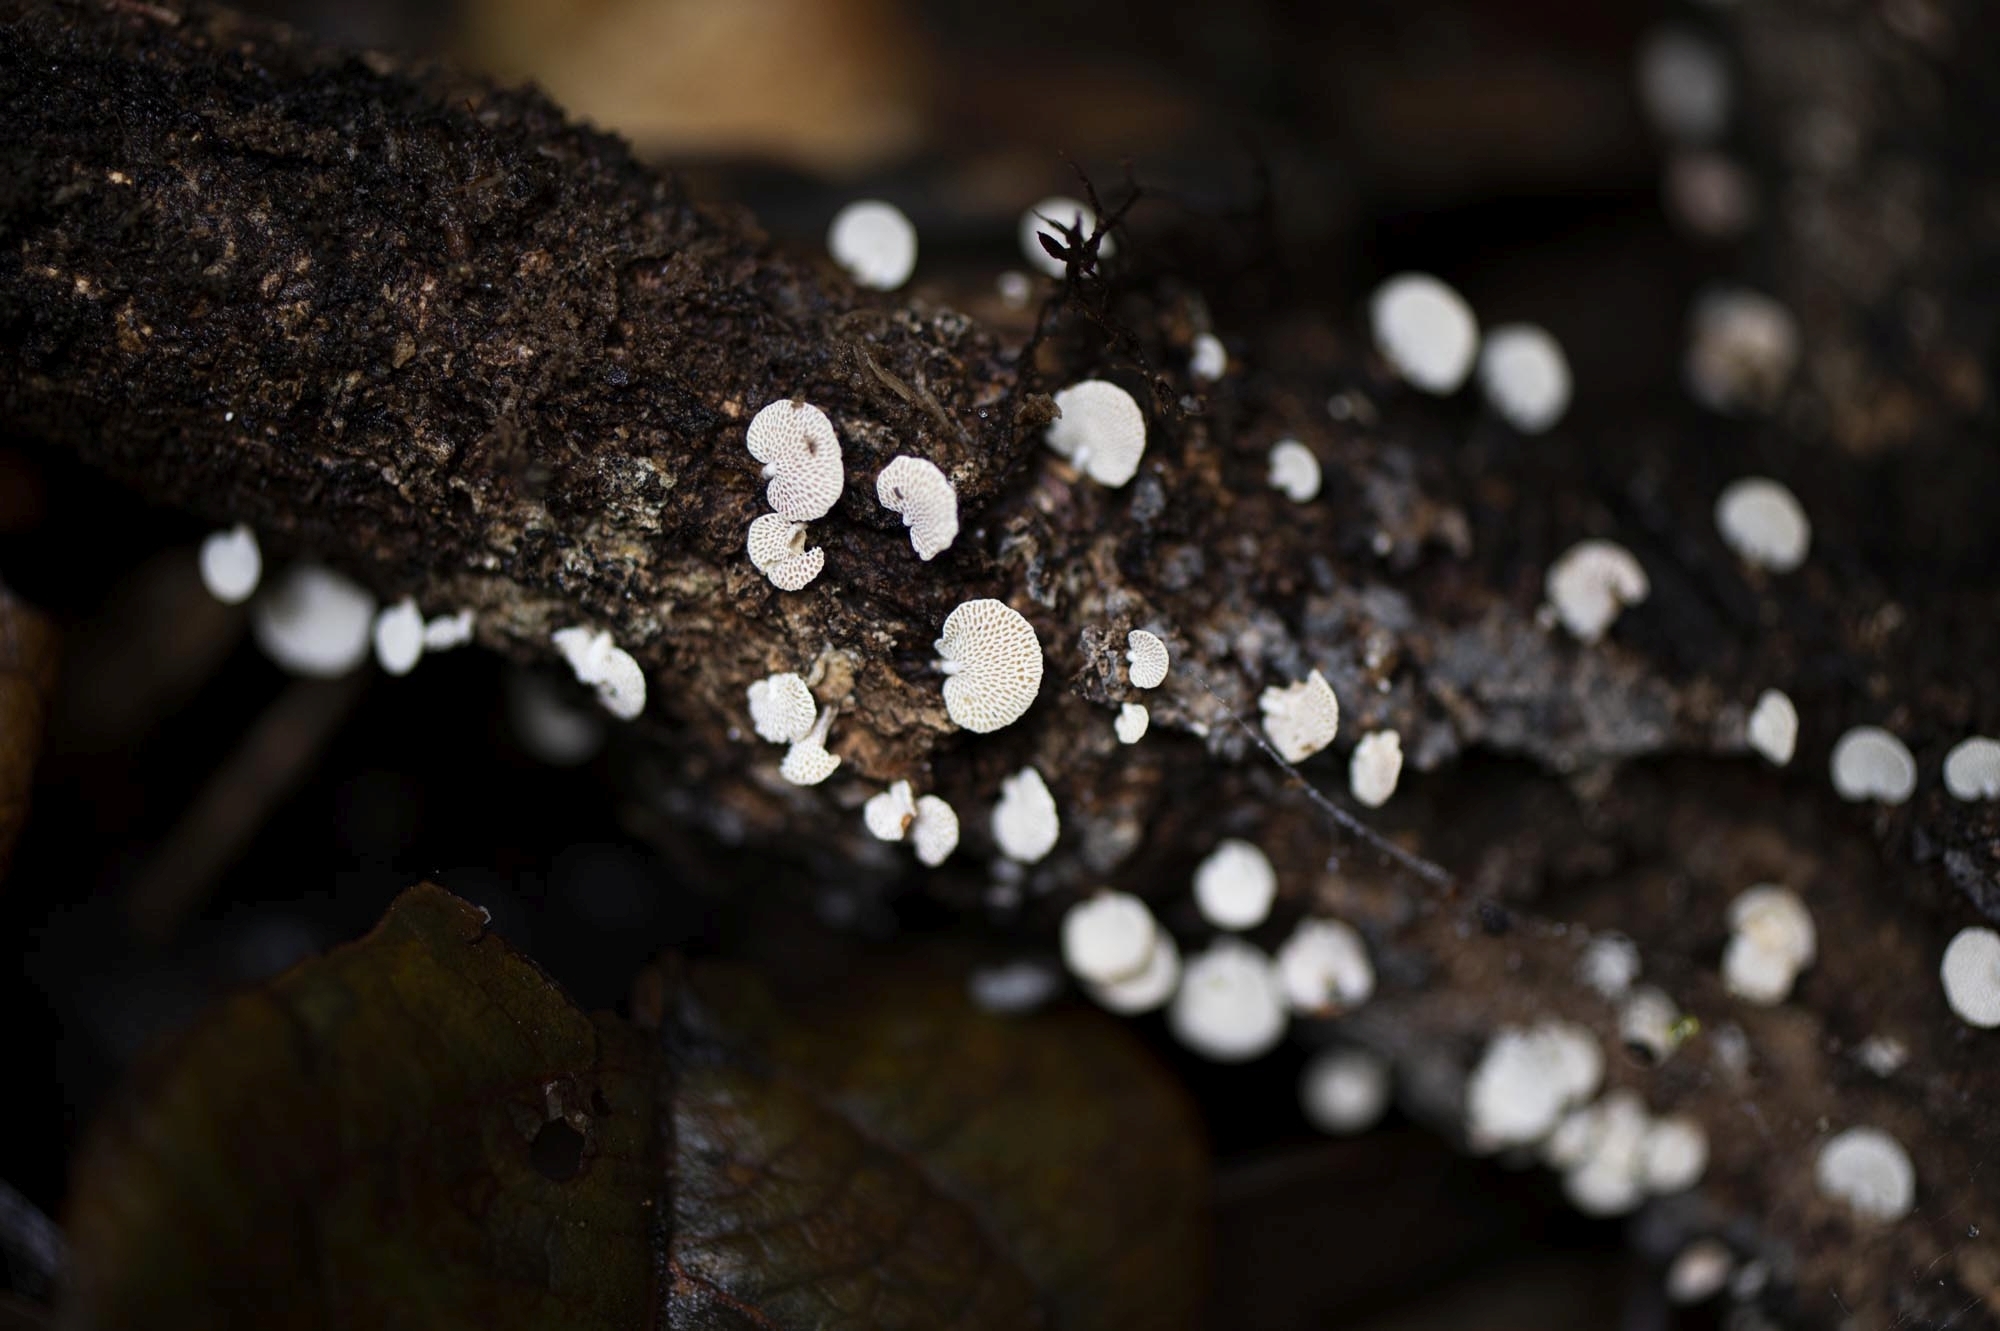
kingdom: Fungi
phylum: Basidiomycota
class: Agaricomycetes
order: Agaricales
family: Mycenaceae
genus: Panellus
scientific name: Panellus luxfilamentus
